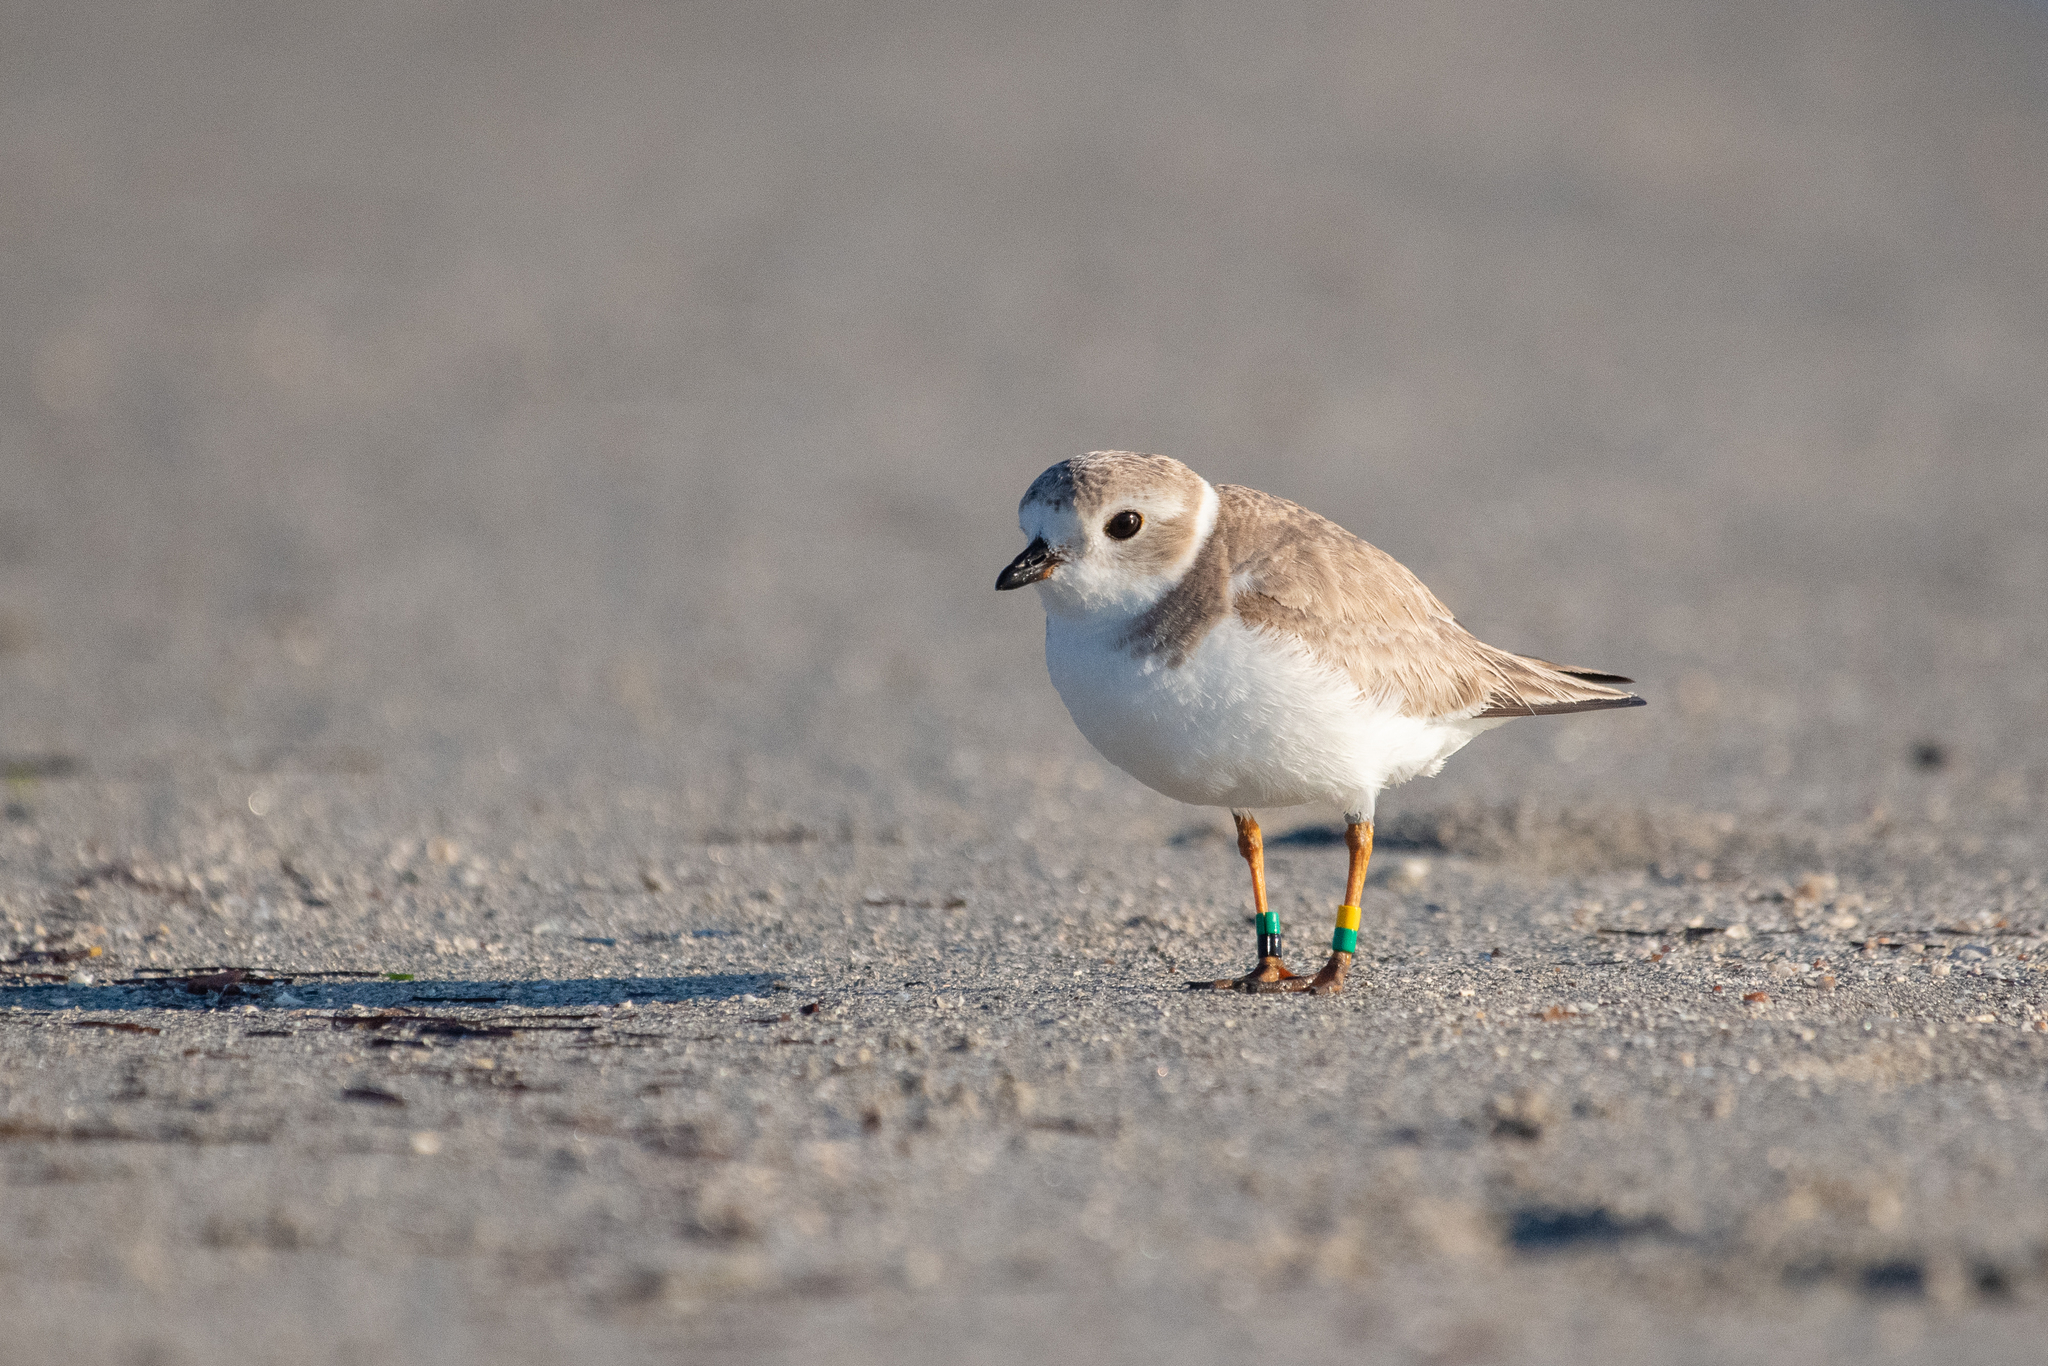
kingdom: Animalia
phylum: Chordata
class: Aves
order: Charadriiformes
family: Charadriidae
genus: Charadrius
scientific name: Charadrius melodus
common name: Piping plover
